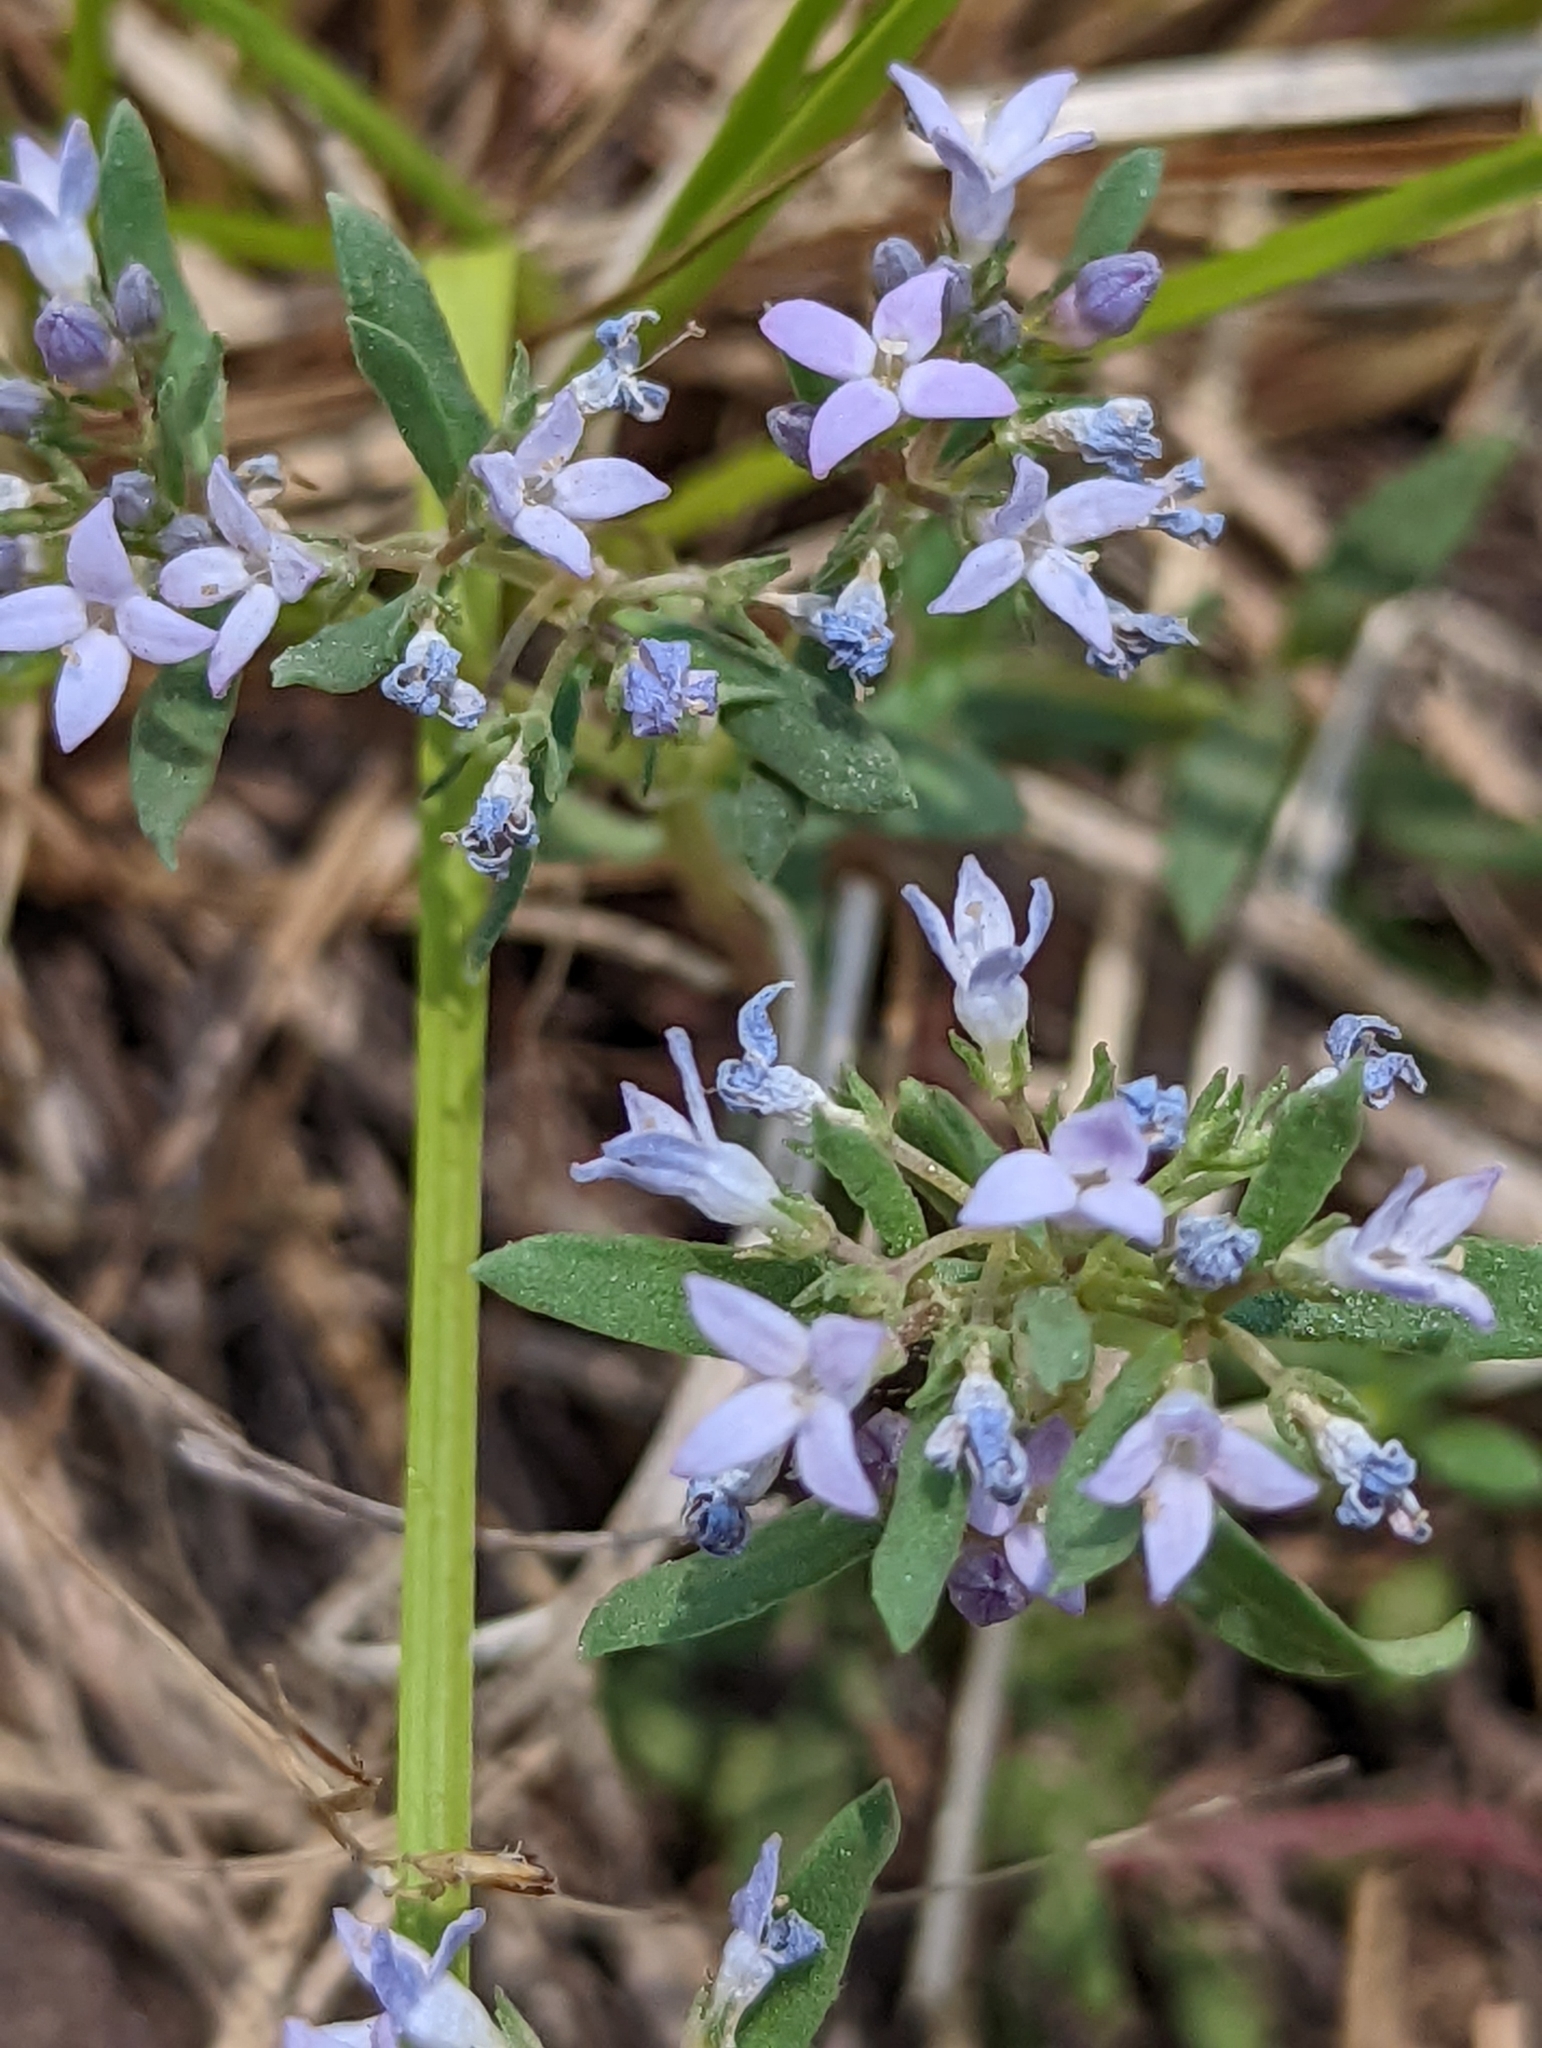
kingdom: Plantae
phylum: Tracheophyta
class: Magnoliopsida
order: Gentianales
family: Rubiaceae
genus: Houstonia
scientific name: Houstonia wrightii
